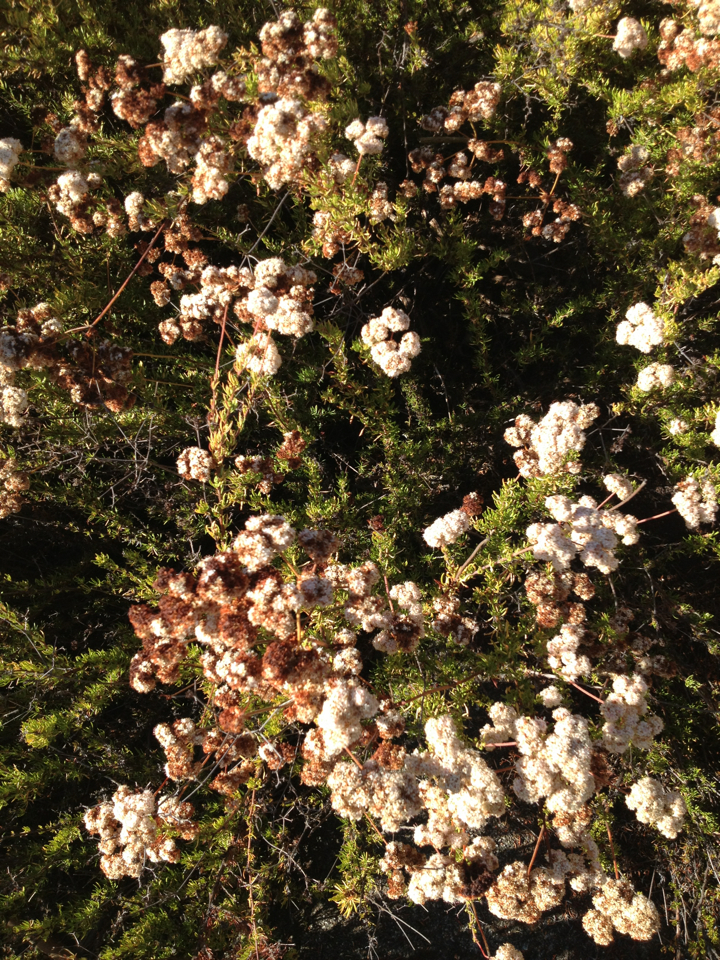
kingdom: Plantae
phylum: Tracheophyta
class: Magnoliopsida
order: Caryophyllales
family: Polygonaceae
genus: Eriogonum
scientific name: Eriogonum fasciculatum
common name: California wild buckwheat
